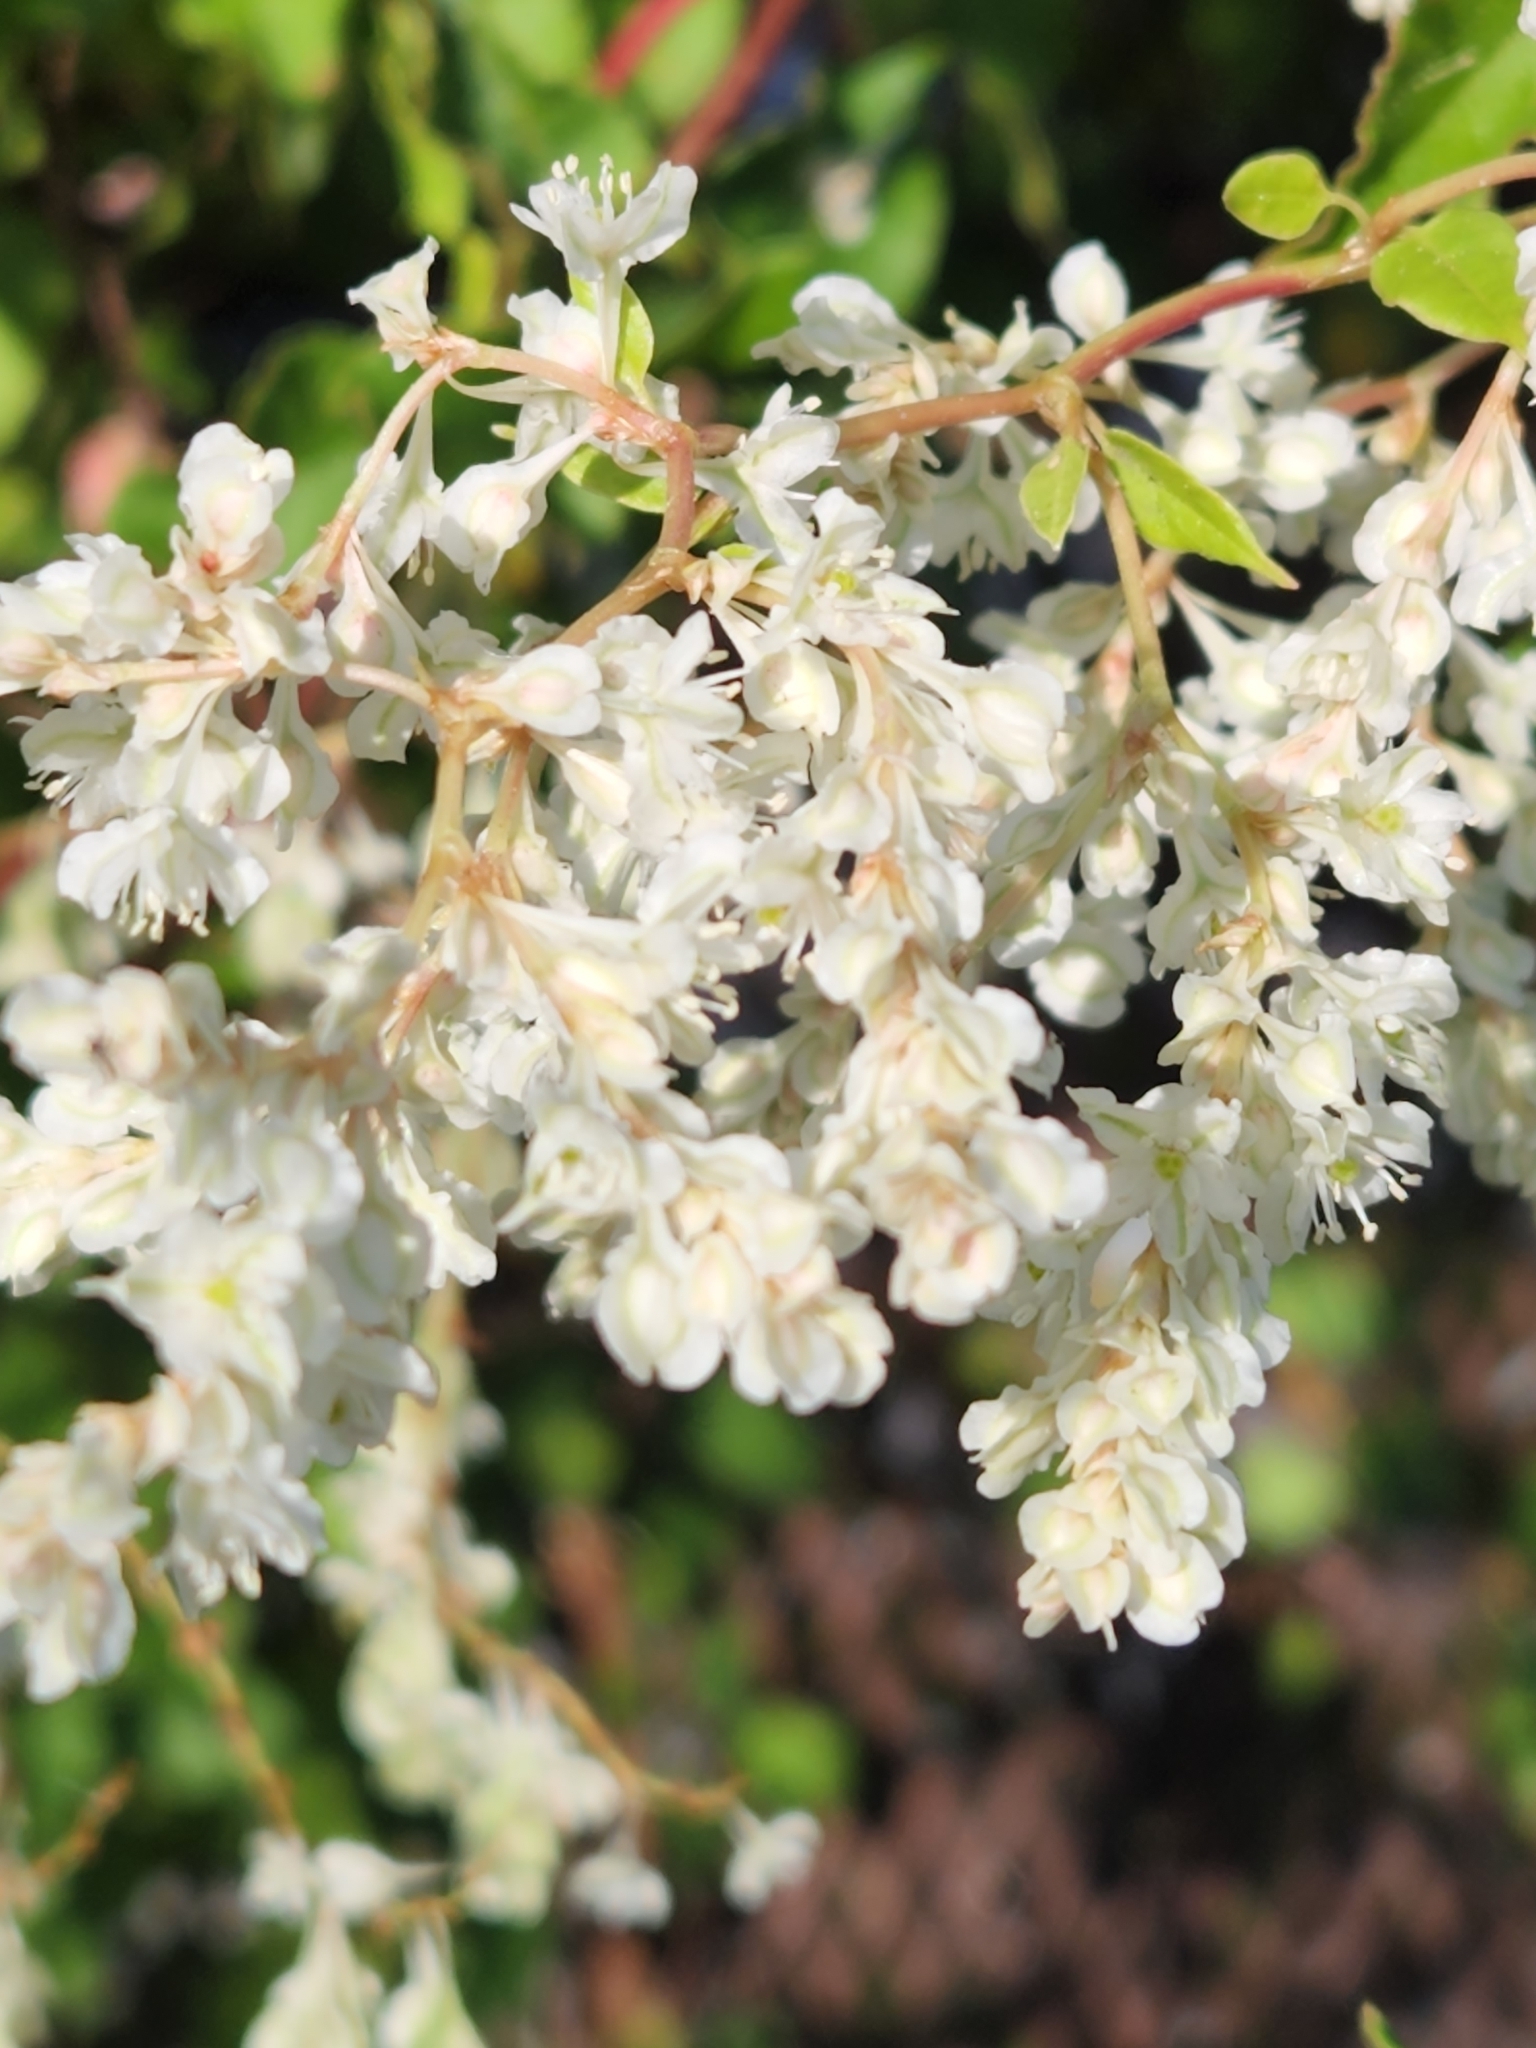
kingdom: Plantae
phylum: Tracheophyta
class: Magnoliopsida
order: Caryophyllales
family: Polygonaceae
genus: Fallopia
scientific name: Fallopia baldschuanica
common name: Russian-vine
